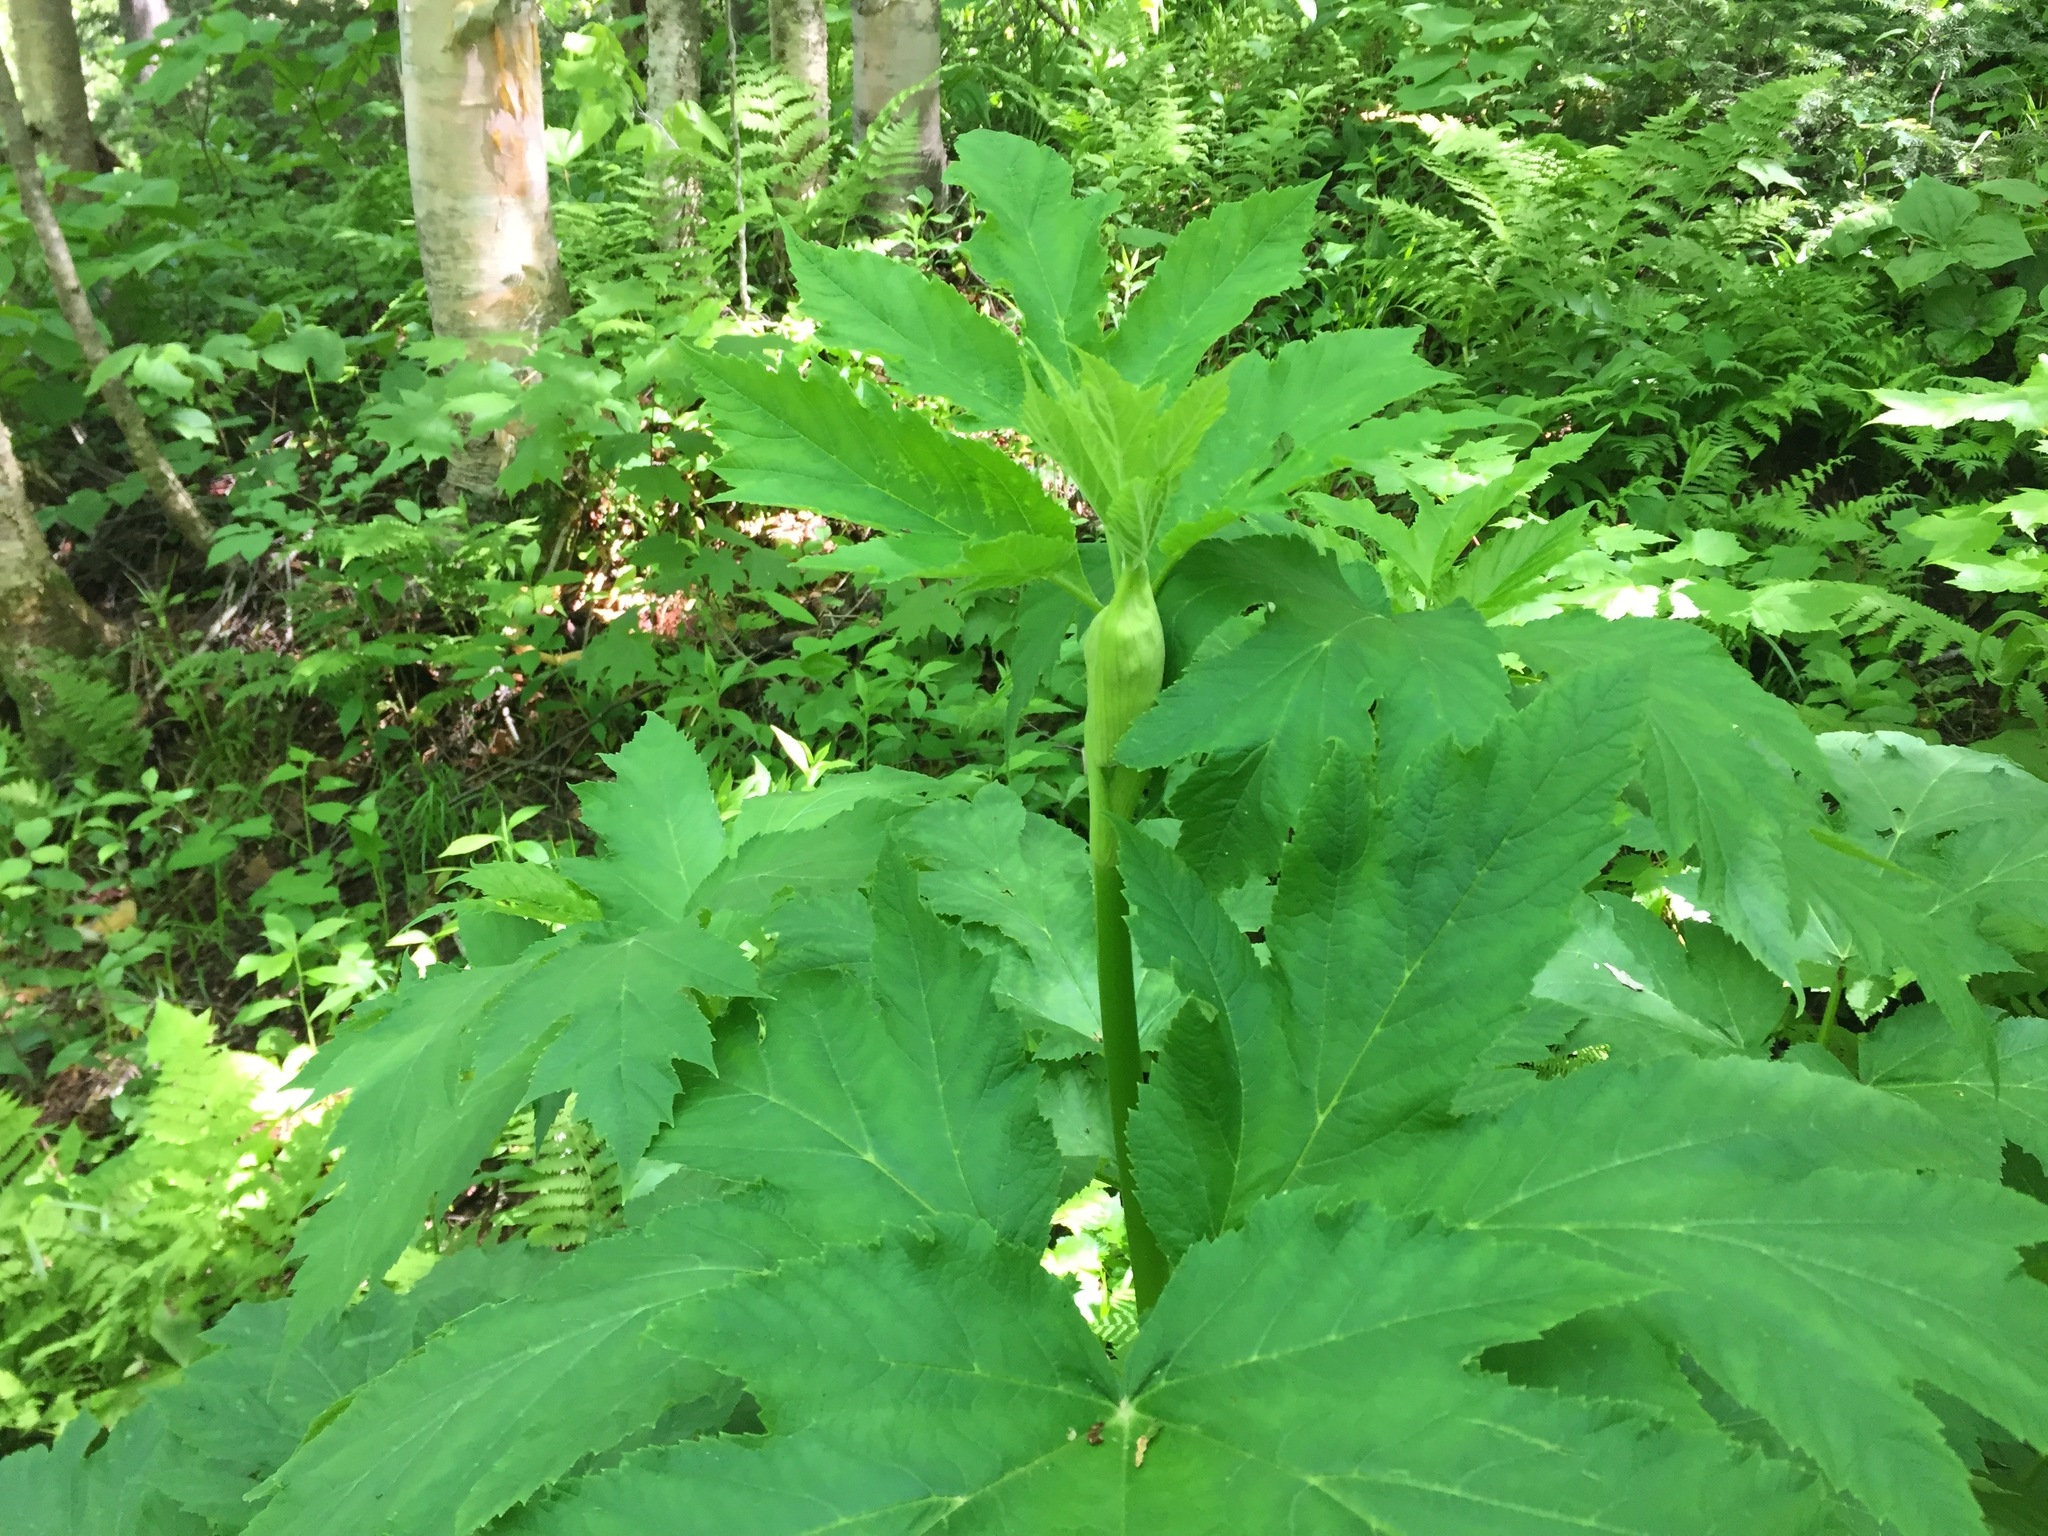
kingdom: Plantae
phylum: Tracheophyta
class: Magnoliopsida
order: Apiales
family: Apiaceae
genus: Heracleum
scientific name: Heracleum maximum
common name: American cow parsnip
